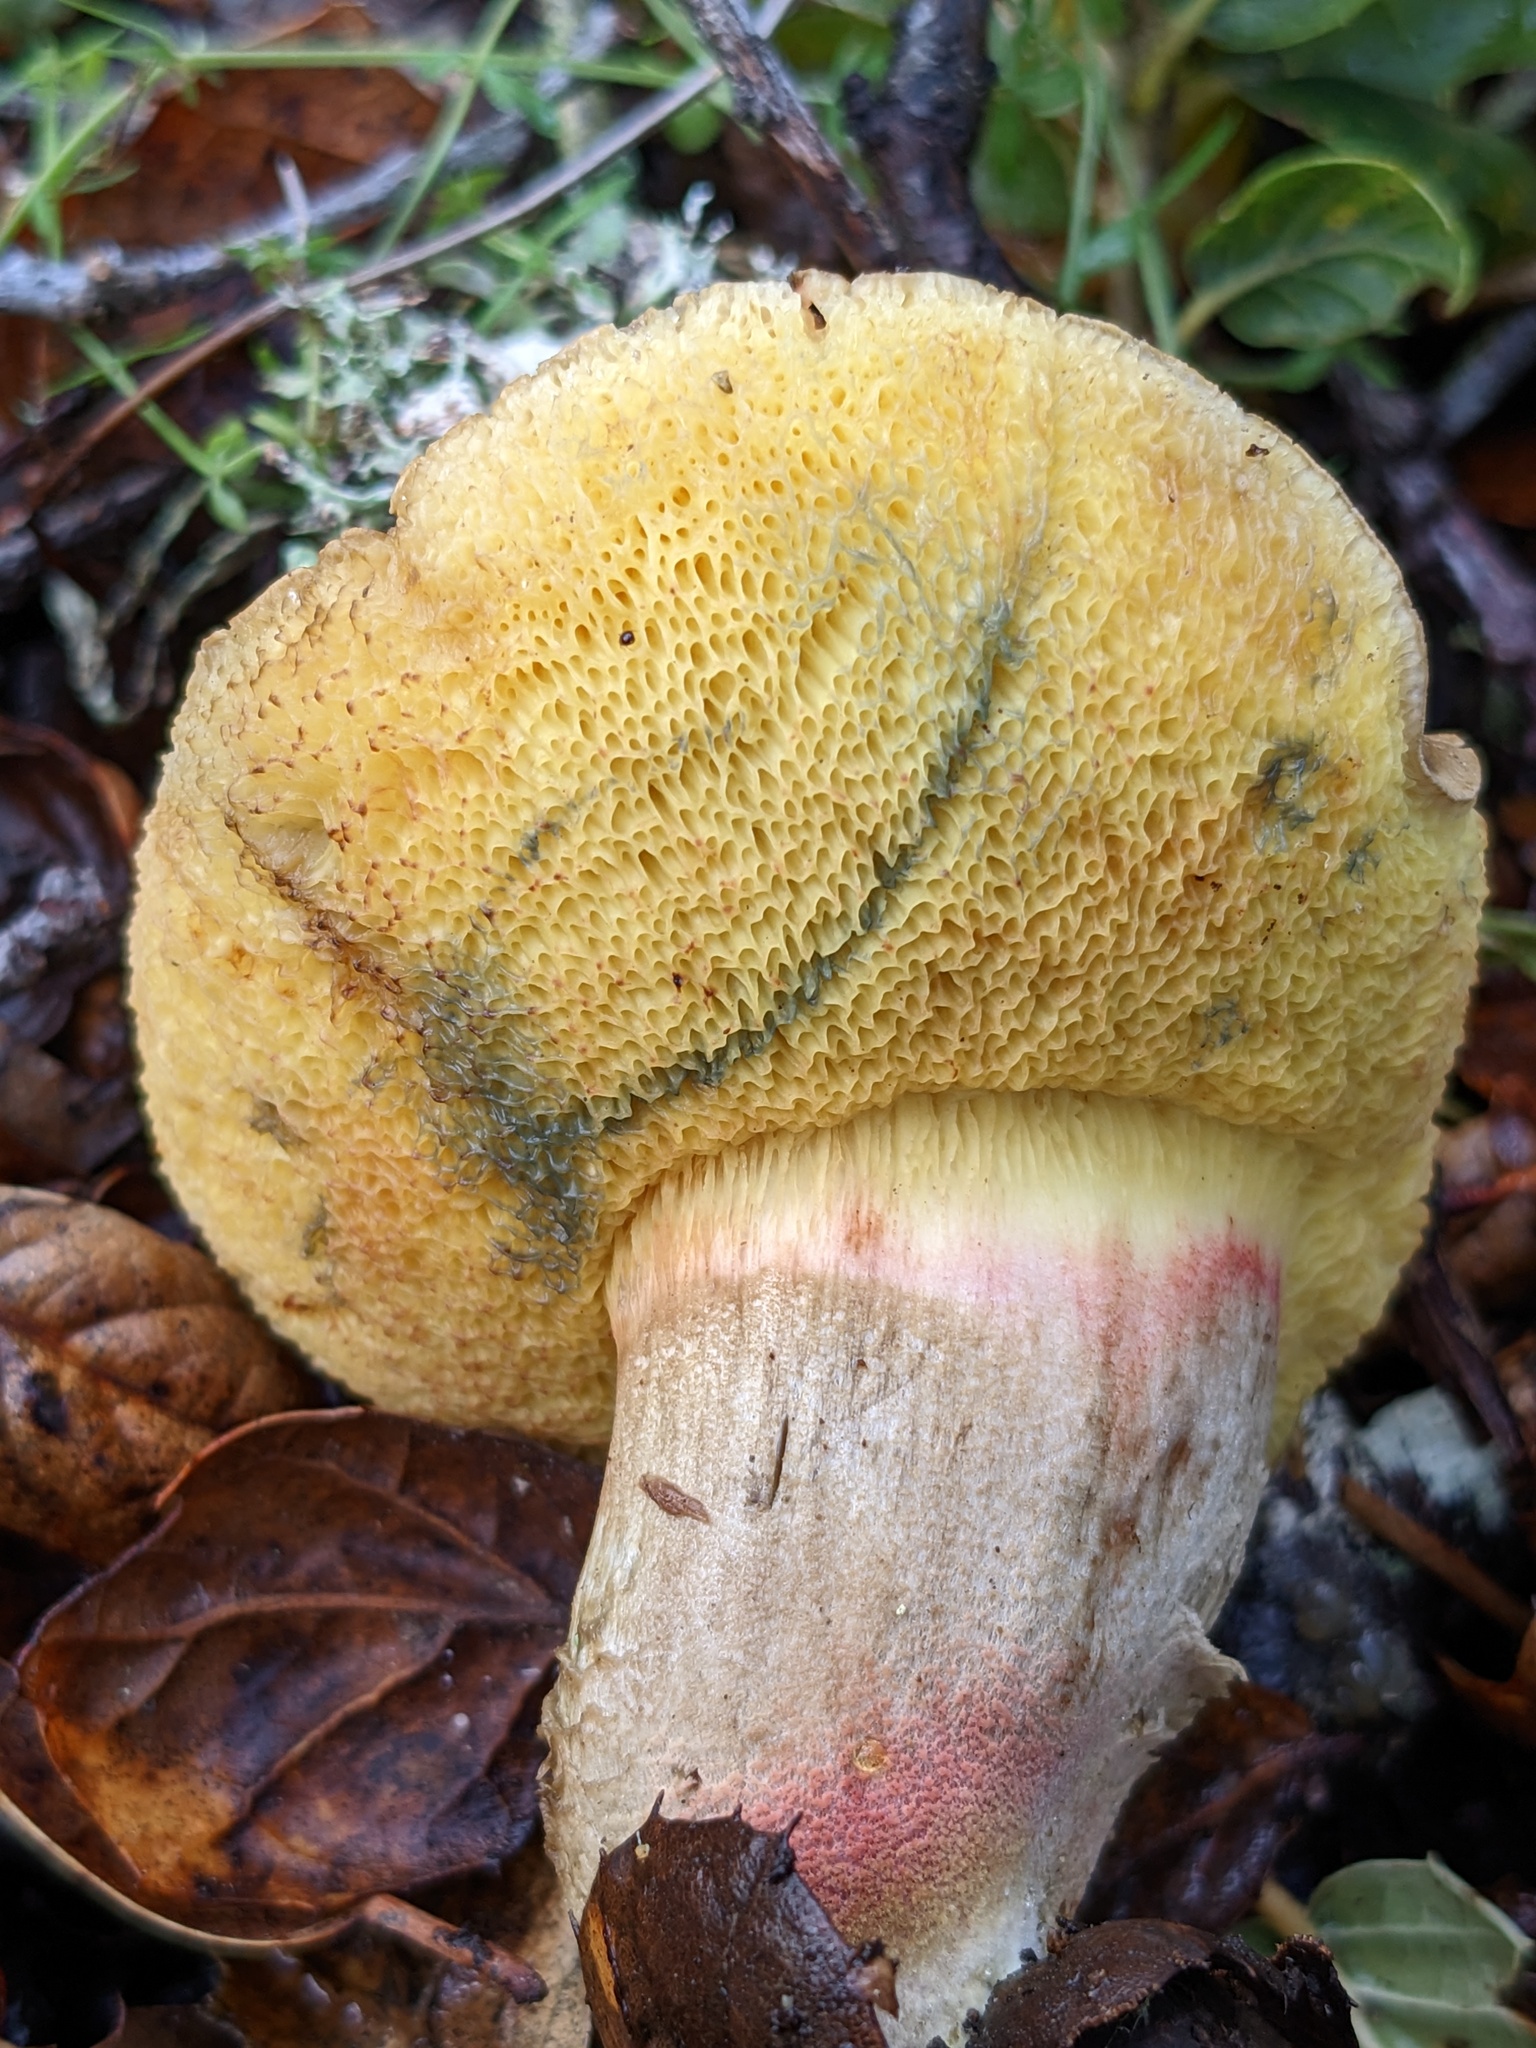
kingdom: Fungi
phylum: Basidiomycota
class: Agaricomycetes
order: Boletales
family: Boletaceae
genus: Xerocomellus
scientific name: Xerocomellus mendocinensis
